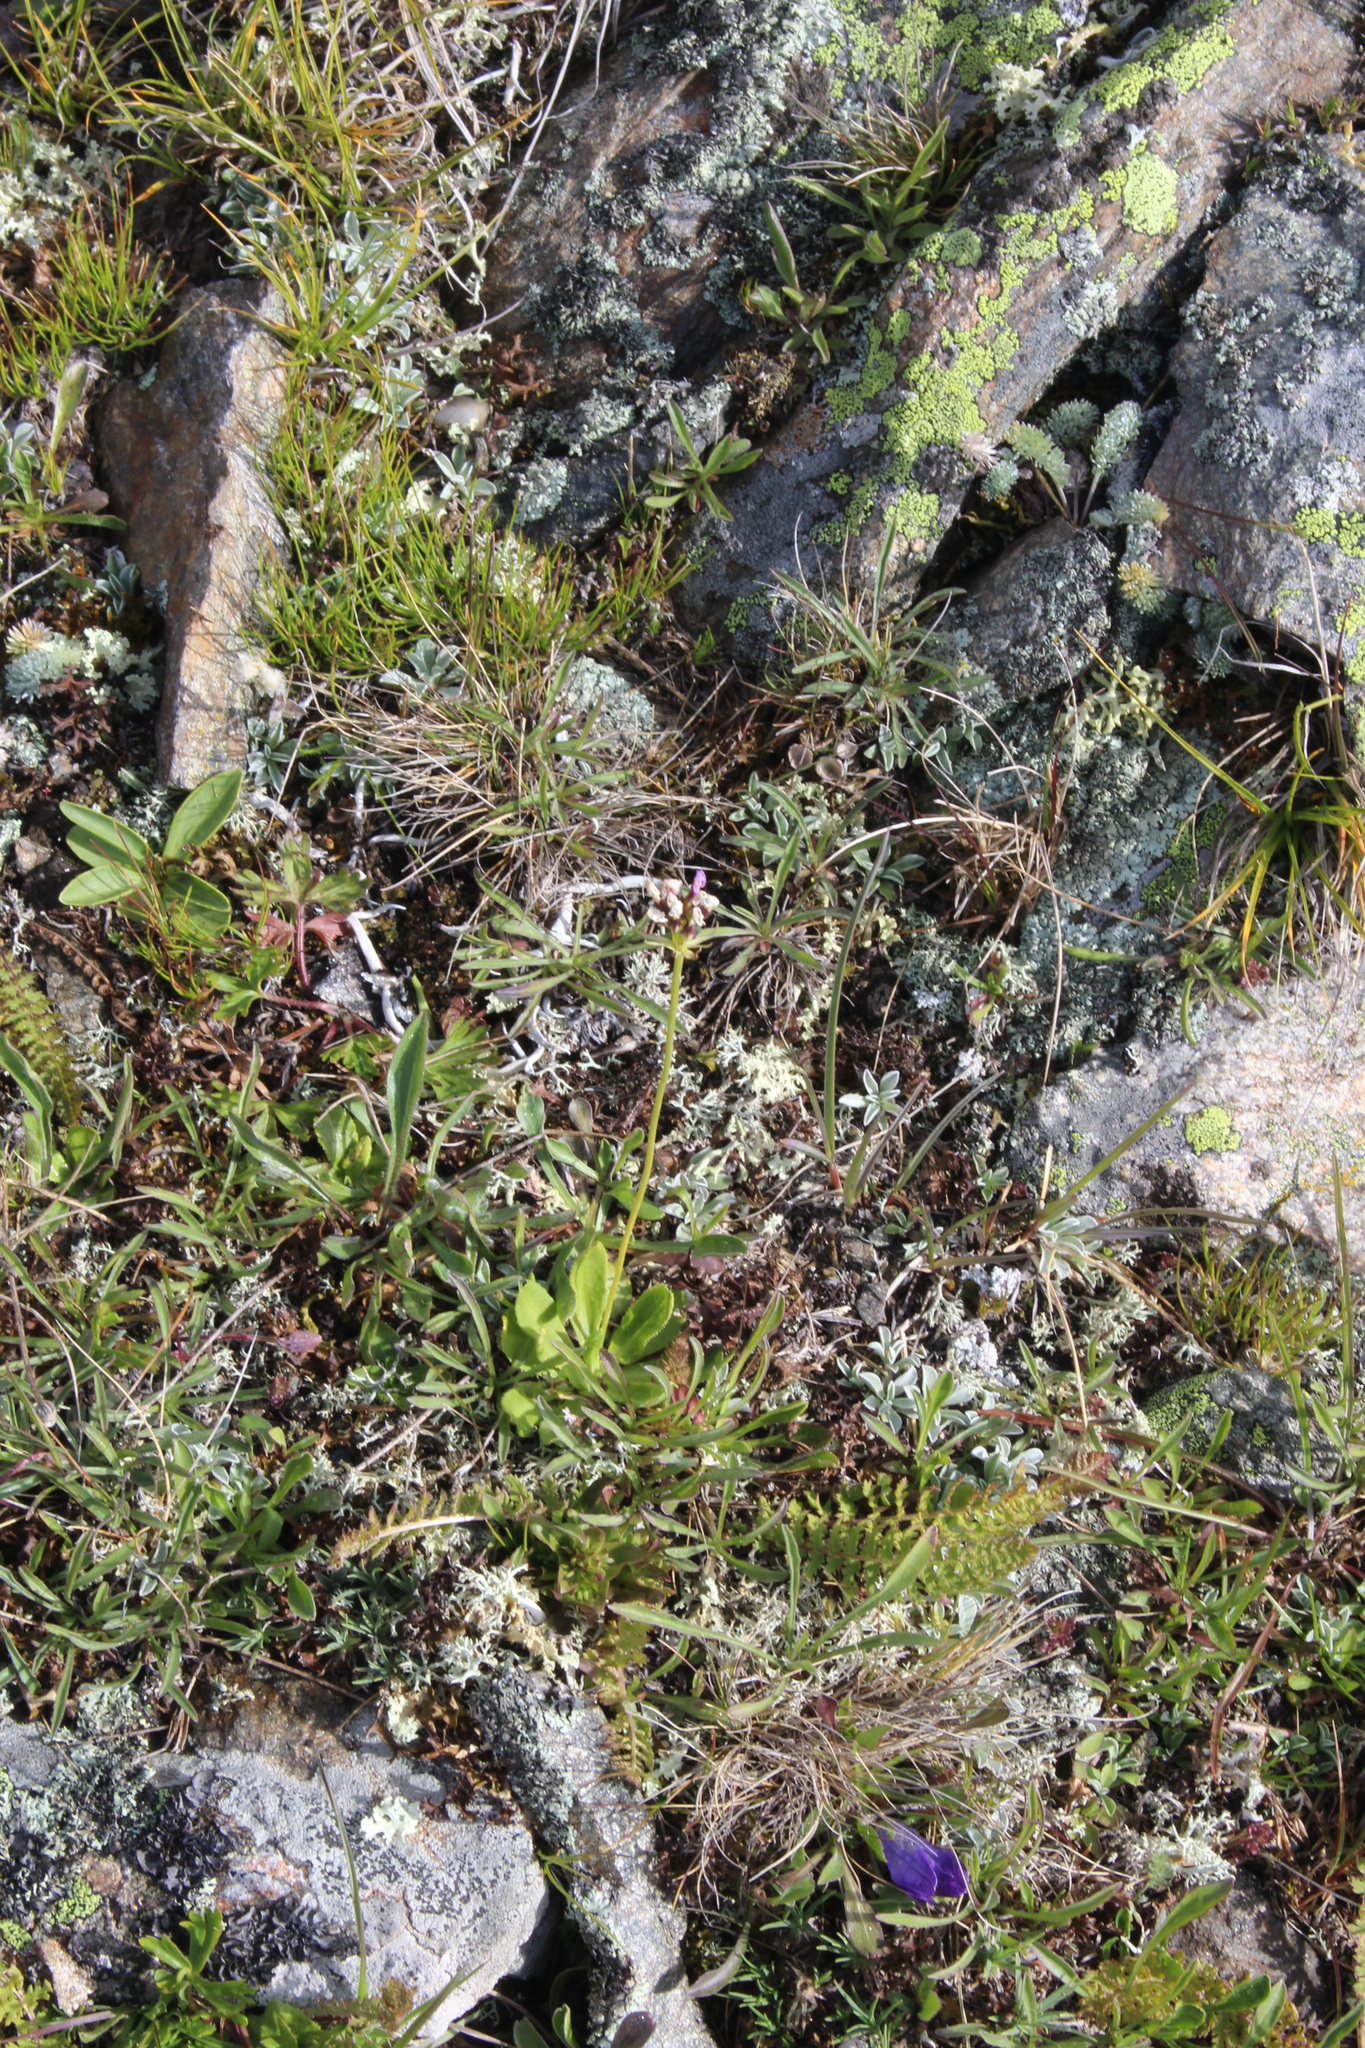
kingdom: Plantae
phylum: Tracheophyta
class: Magnoliopsida
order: Ericales
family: Primulaceae
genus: Primula
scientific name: Primula algida
